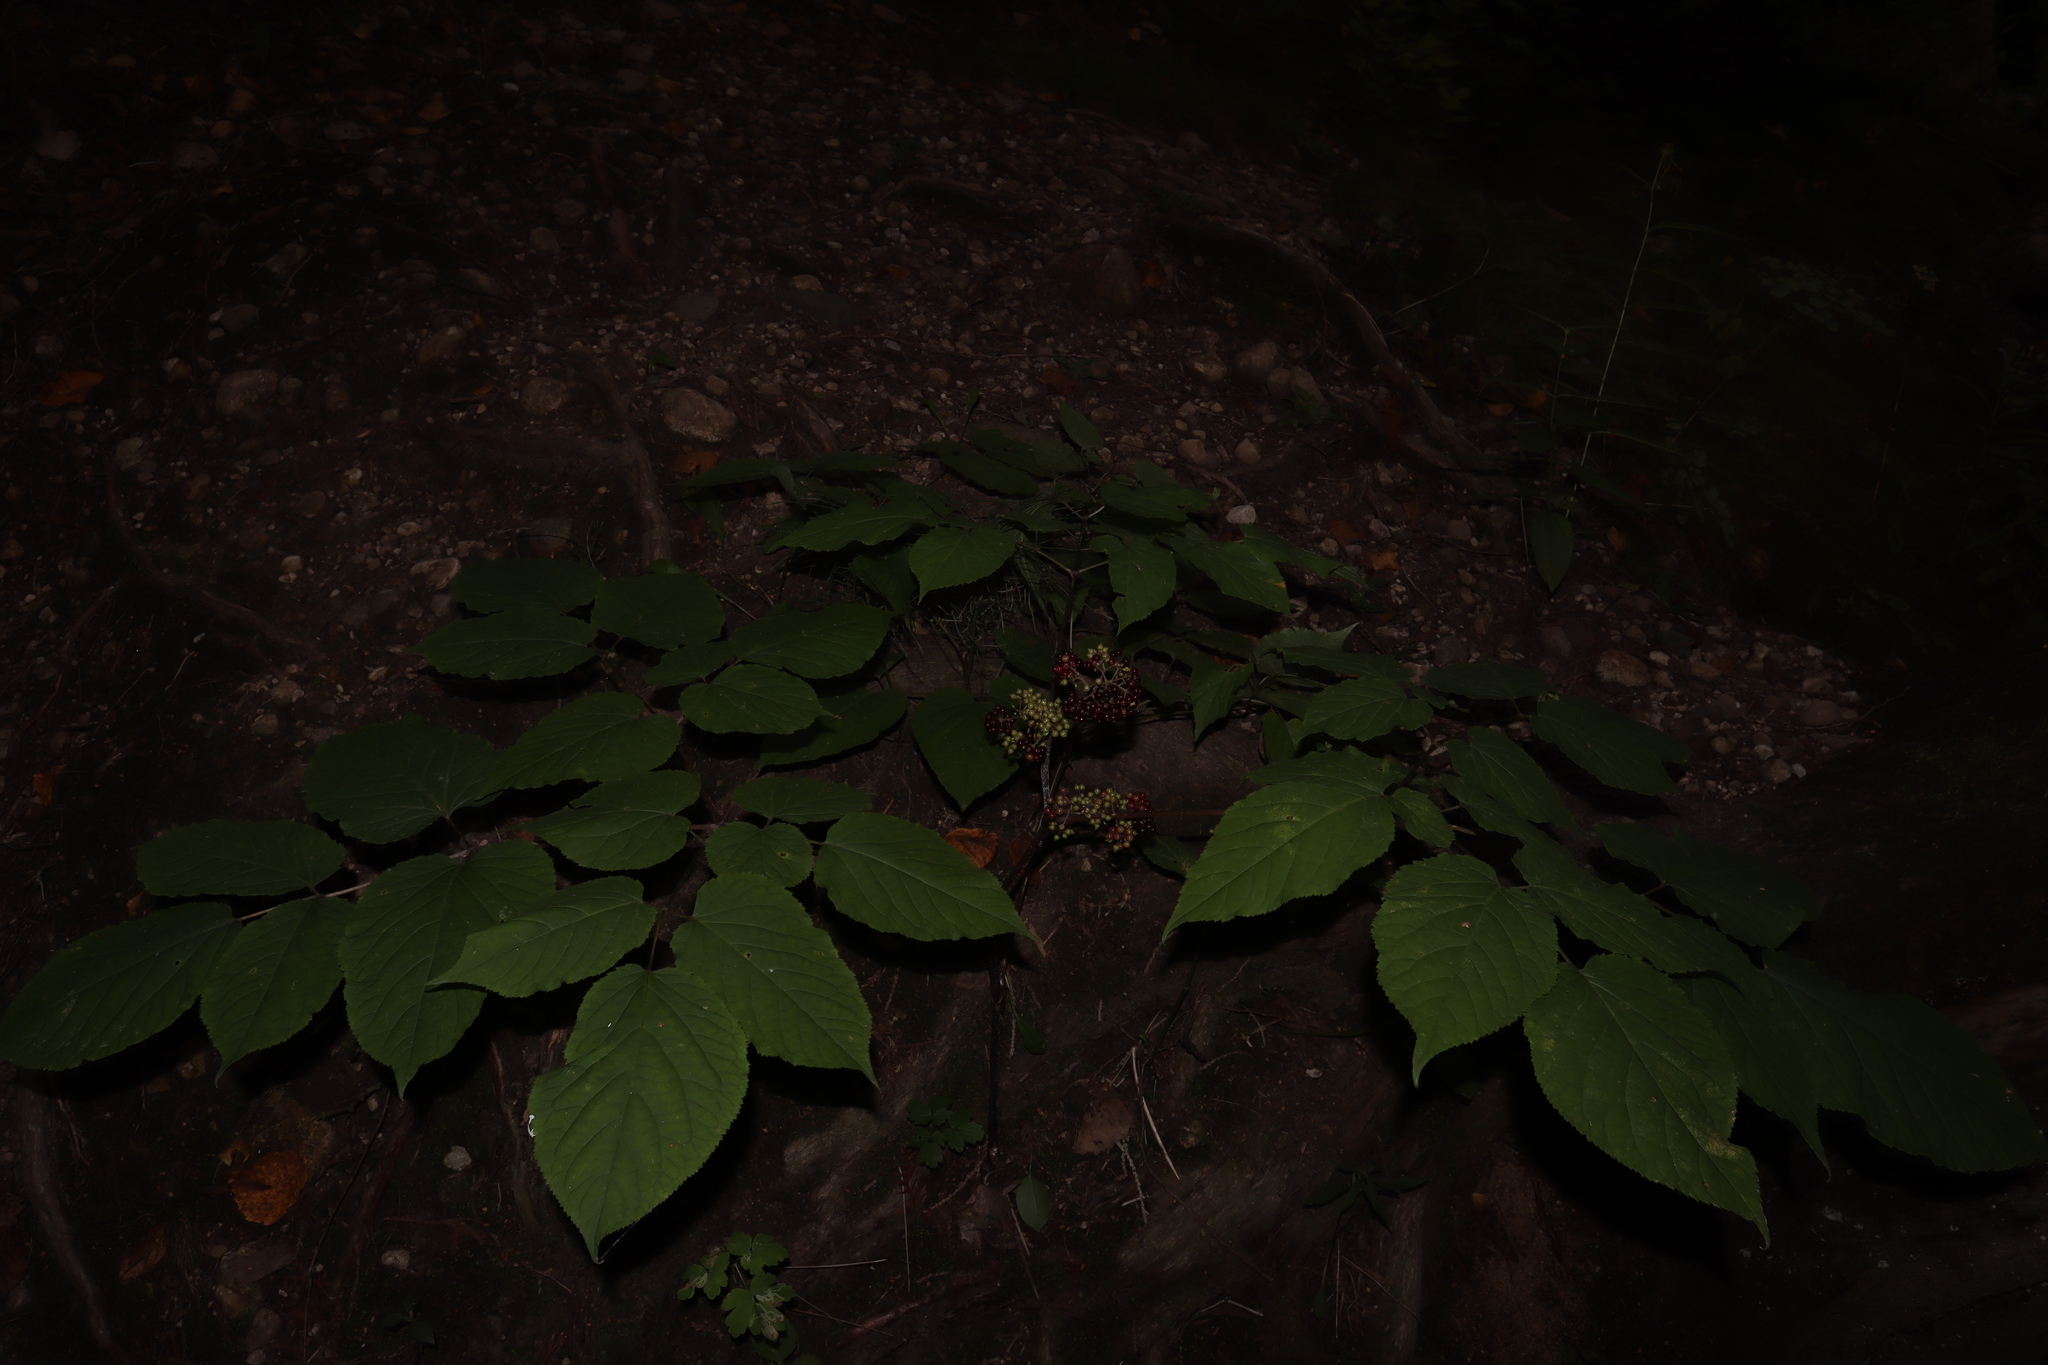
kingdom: Plantae
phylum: Tracheophyta
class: Magnoliopsida
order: Apiales
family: Araliaceae
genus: Aralia
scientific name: Aralia racemosa
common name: American-spikenard
